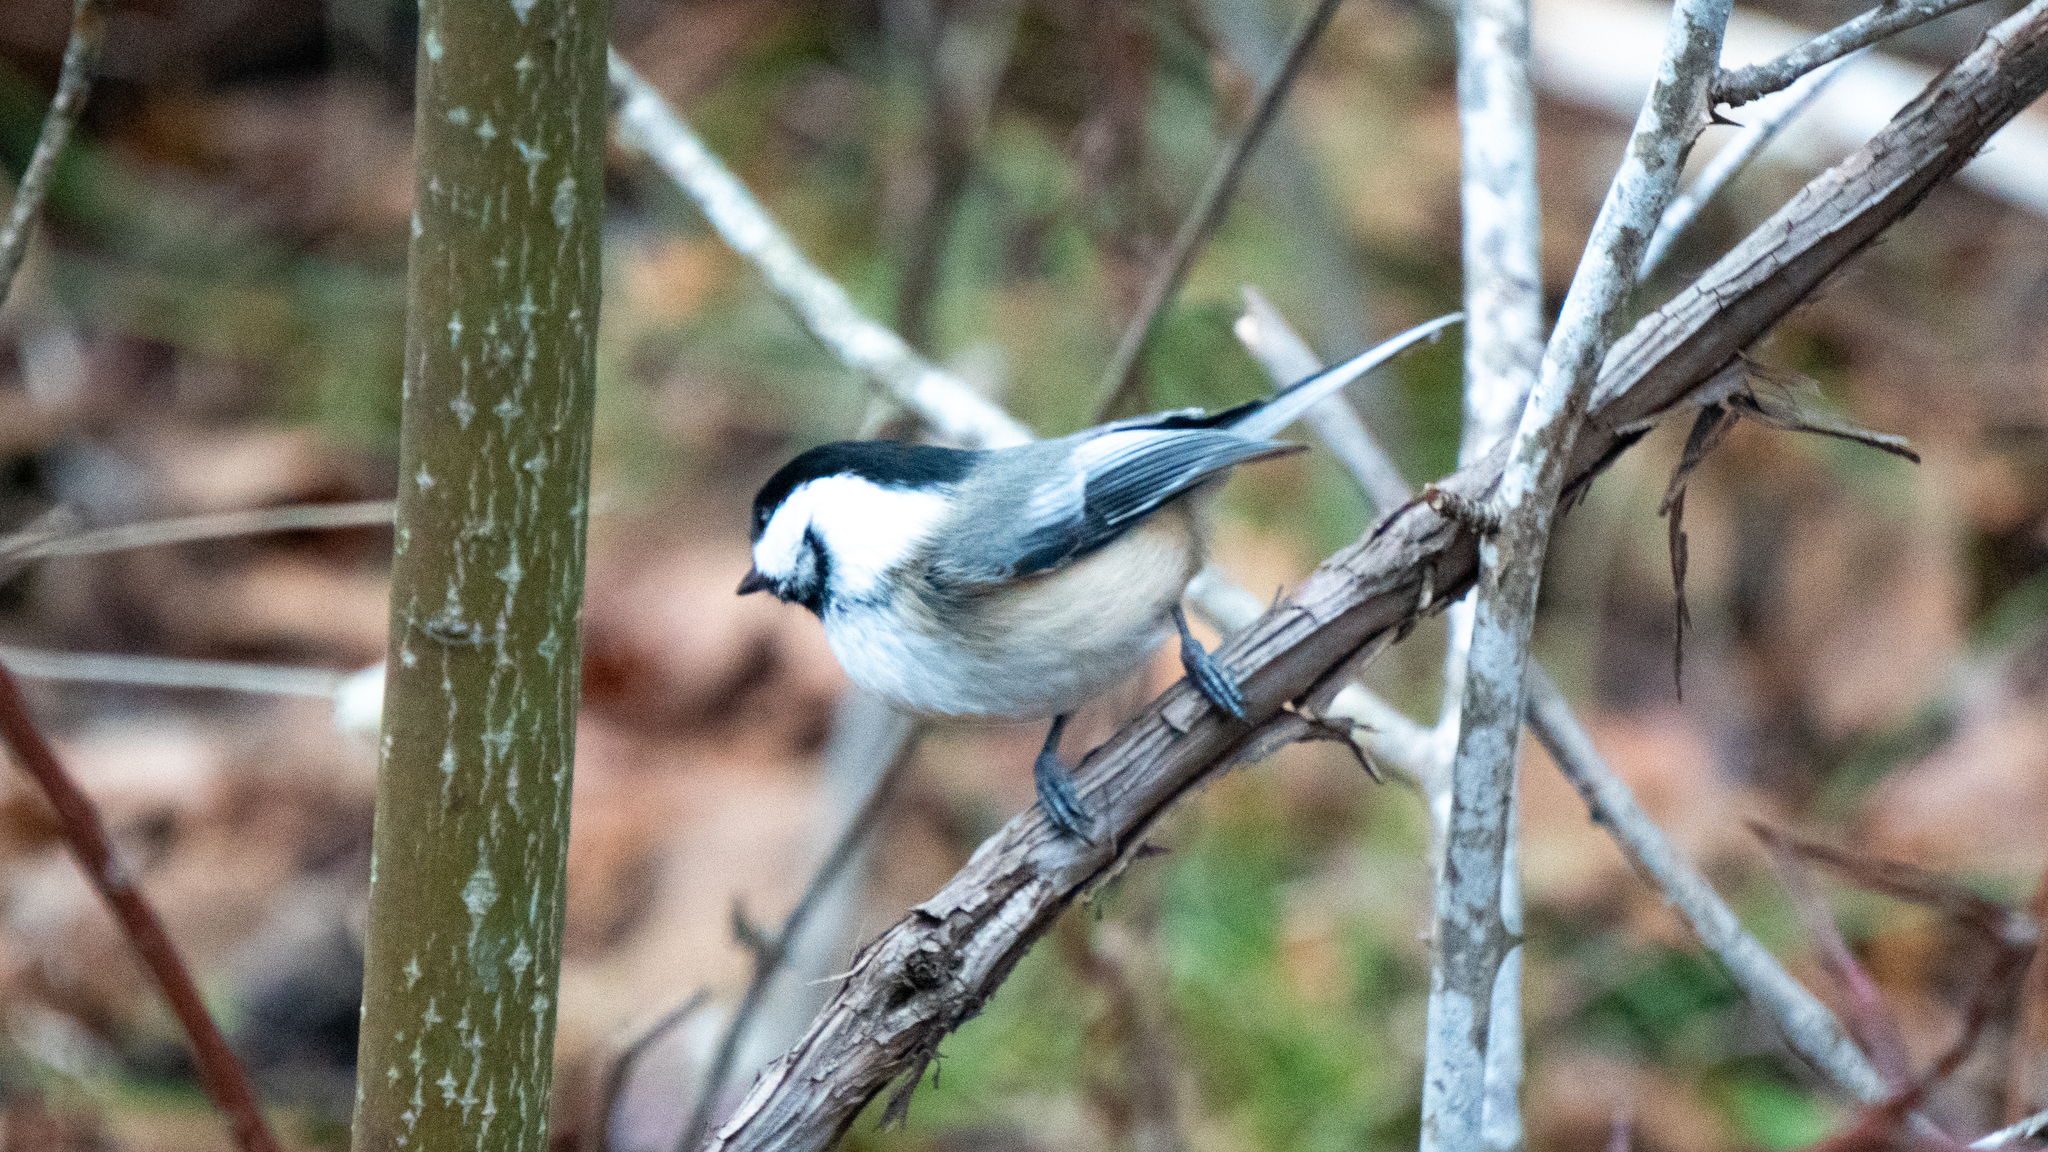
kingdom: Animalia
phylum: Chordata
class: Aves
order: Passeriformes
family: Paridae
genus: Poecile
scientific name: Poecile atricapillus
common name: Black-capped chickadee
